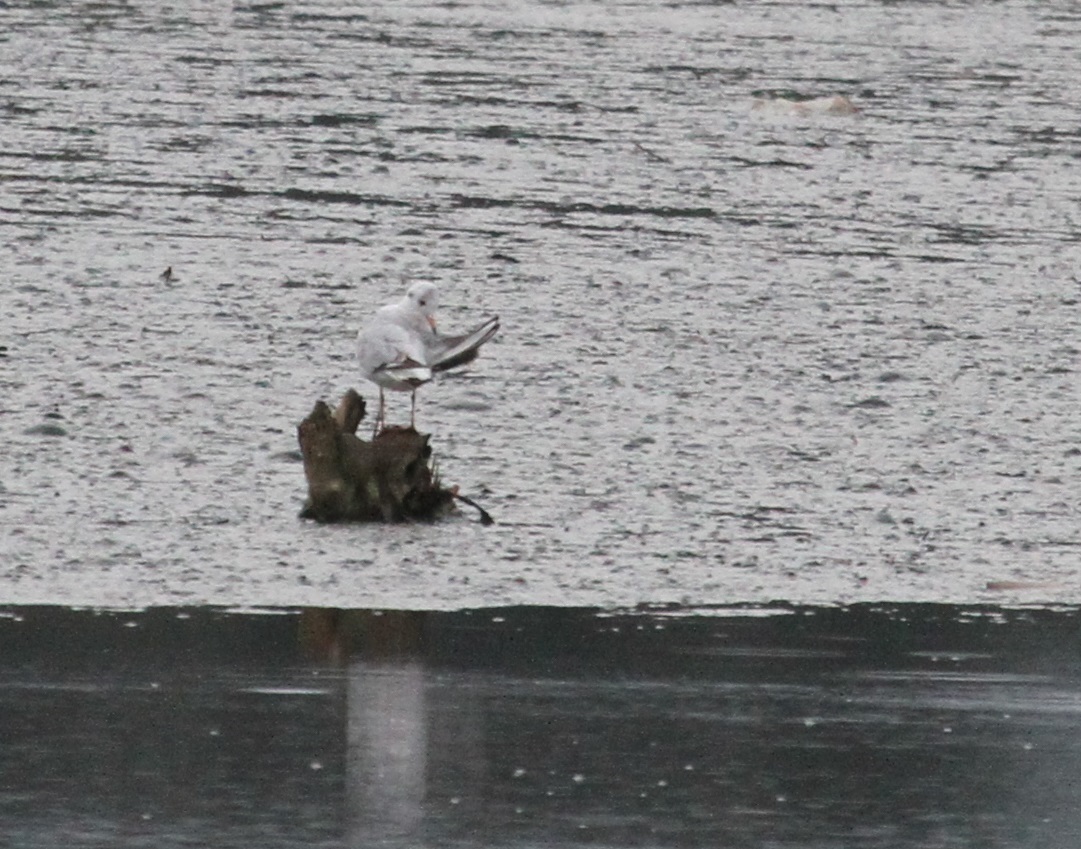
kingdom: Animalia
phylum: Chordata
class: Aves
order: Charadriiformes
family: Laridae
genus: Chroicocephalus
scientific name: Chroicocephalus ridibundus
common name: Black-headed gull
